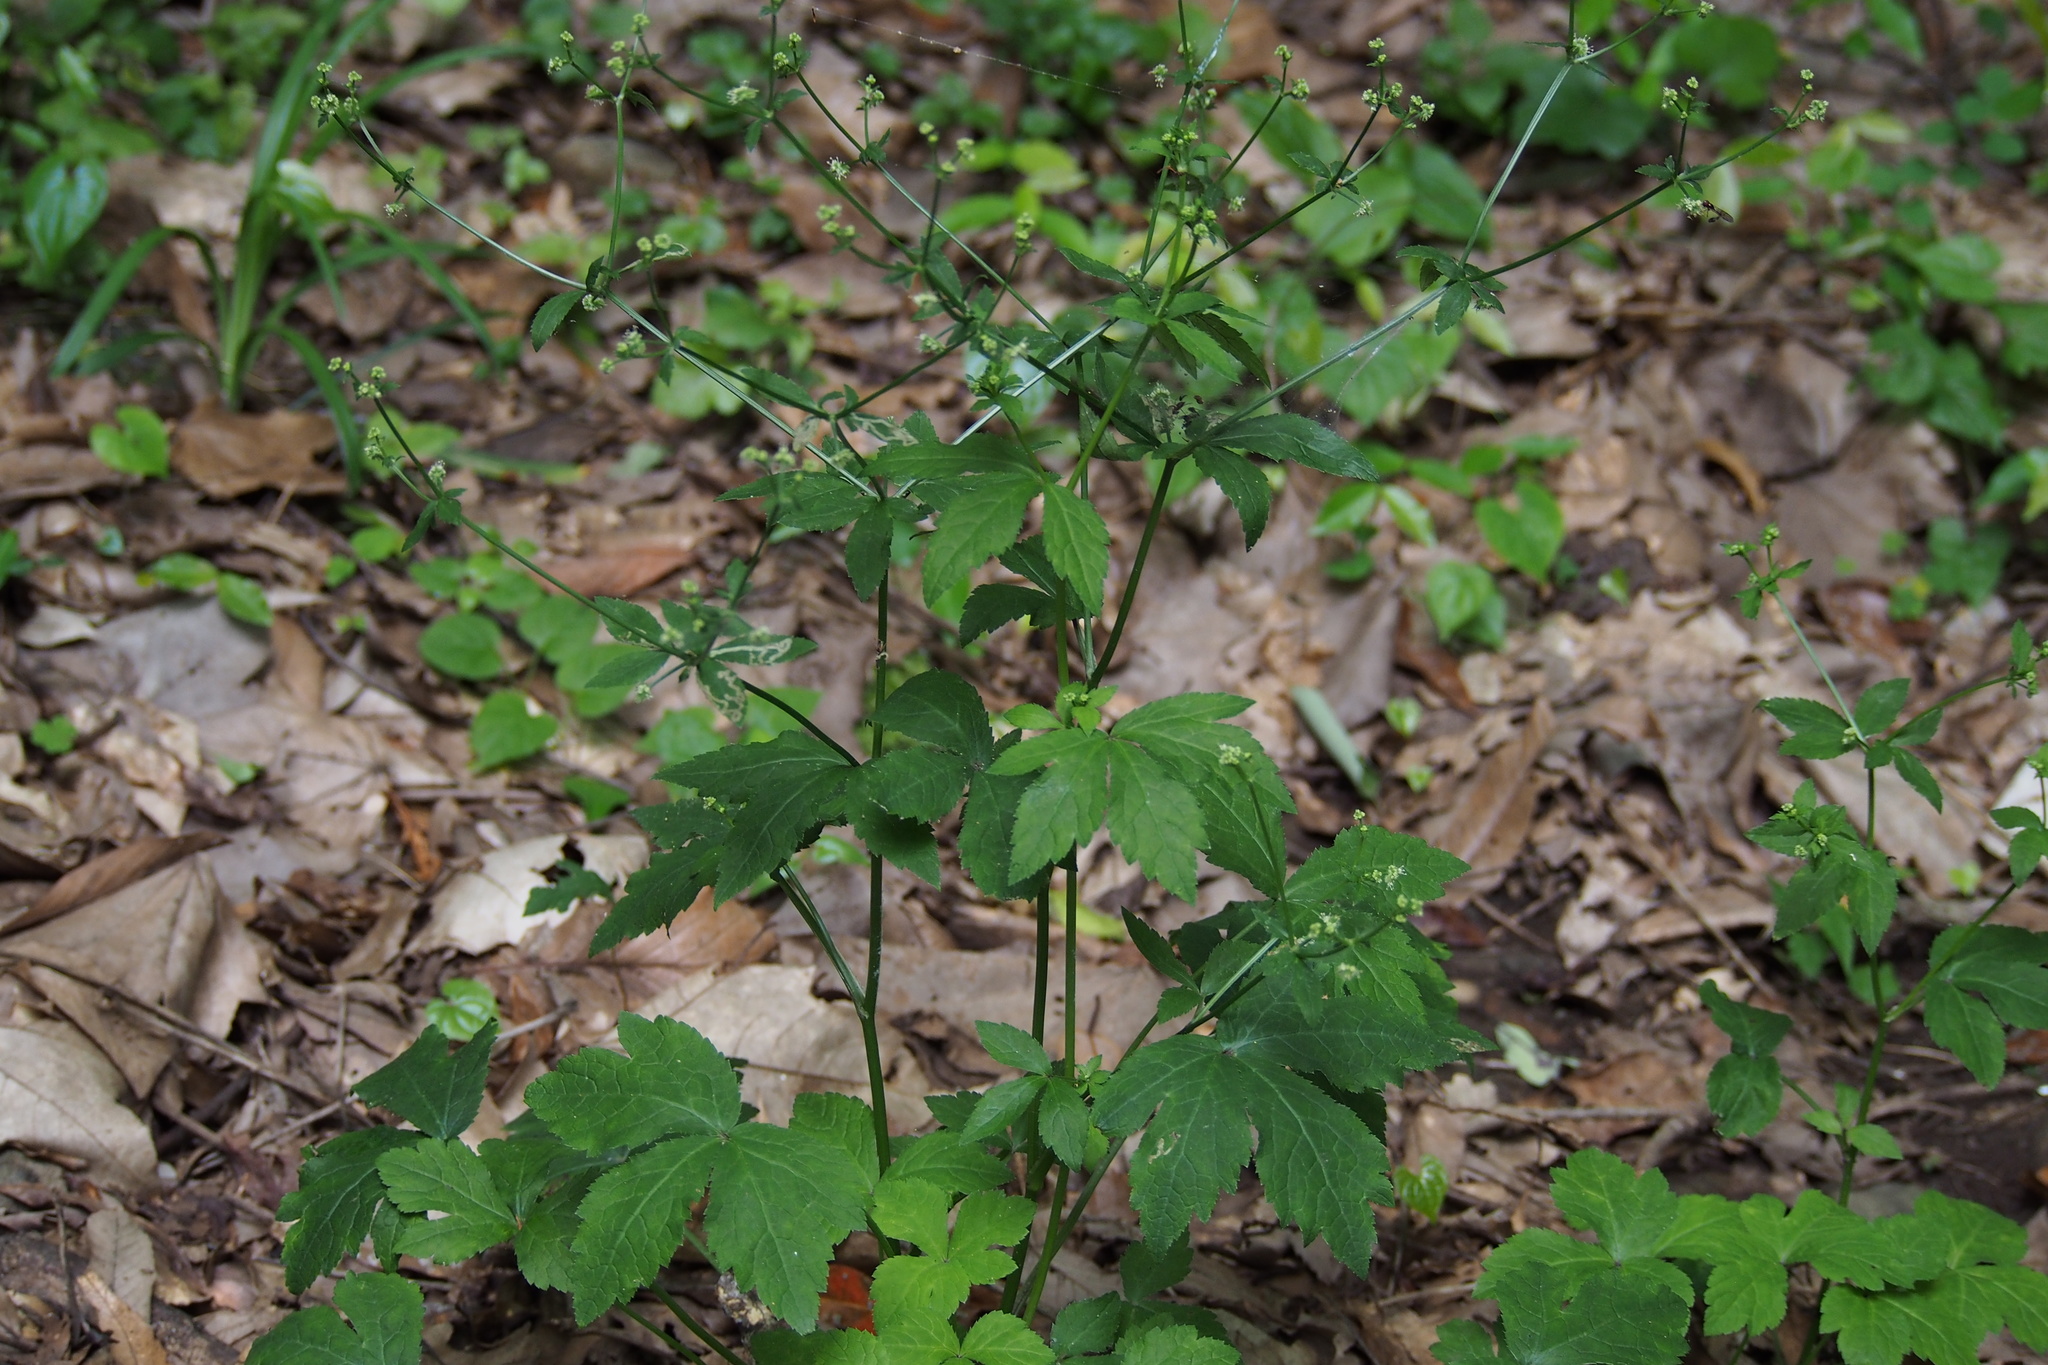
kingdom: Plantae
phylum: Tracheophyta
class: Magnoliopsida
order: Apiales
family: Apiaceae
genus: Sanicula
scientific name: Sanicula chinensis
